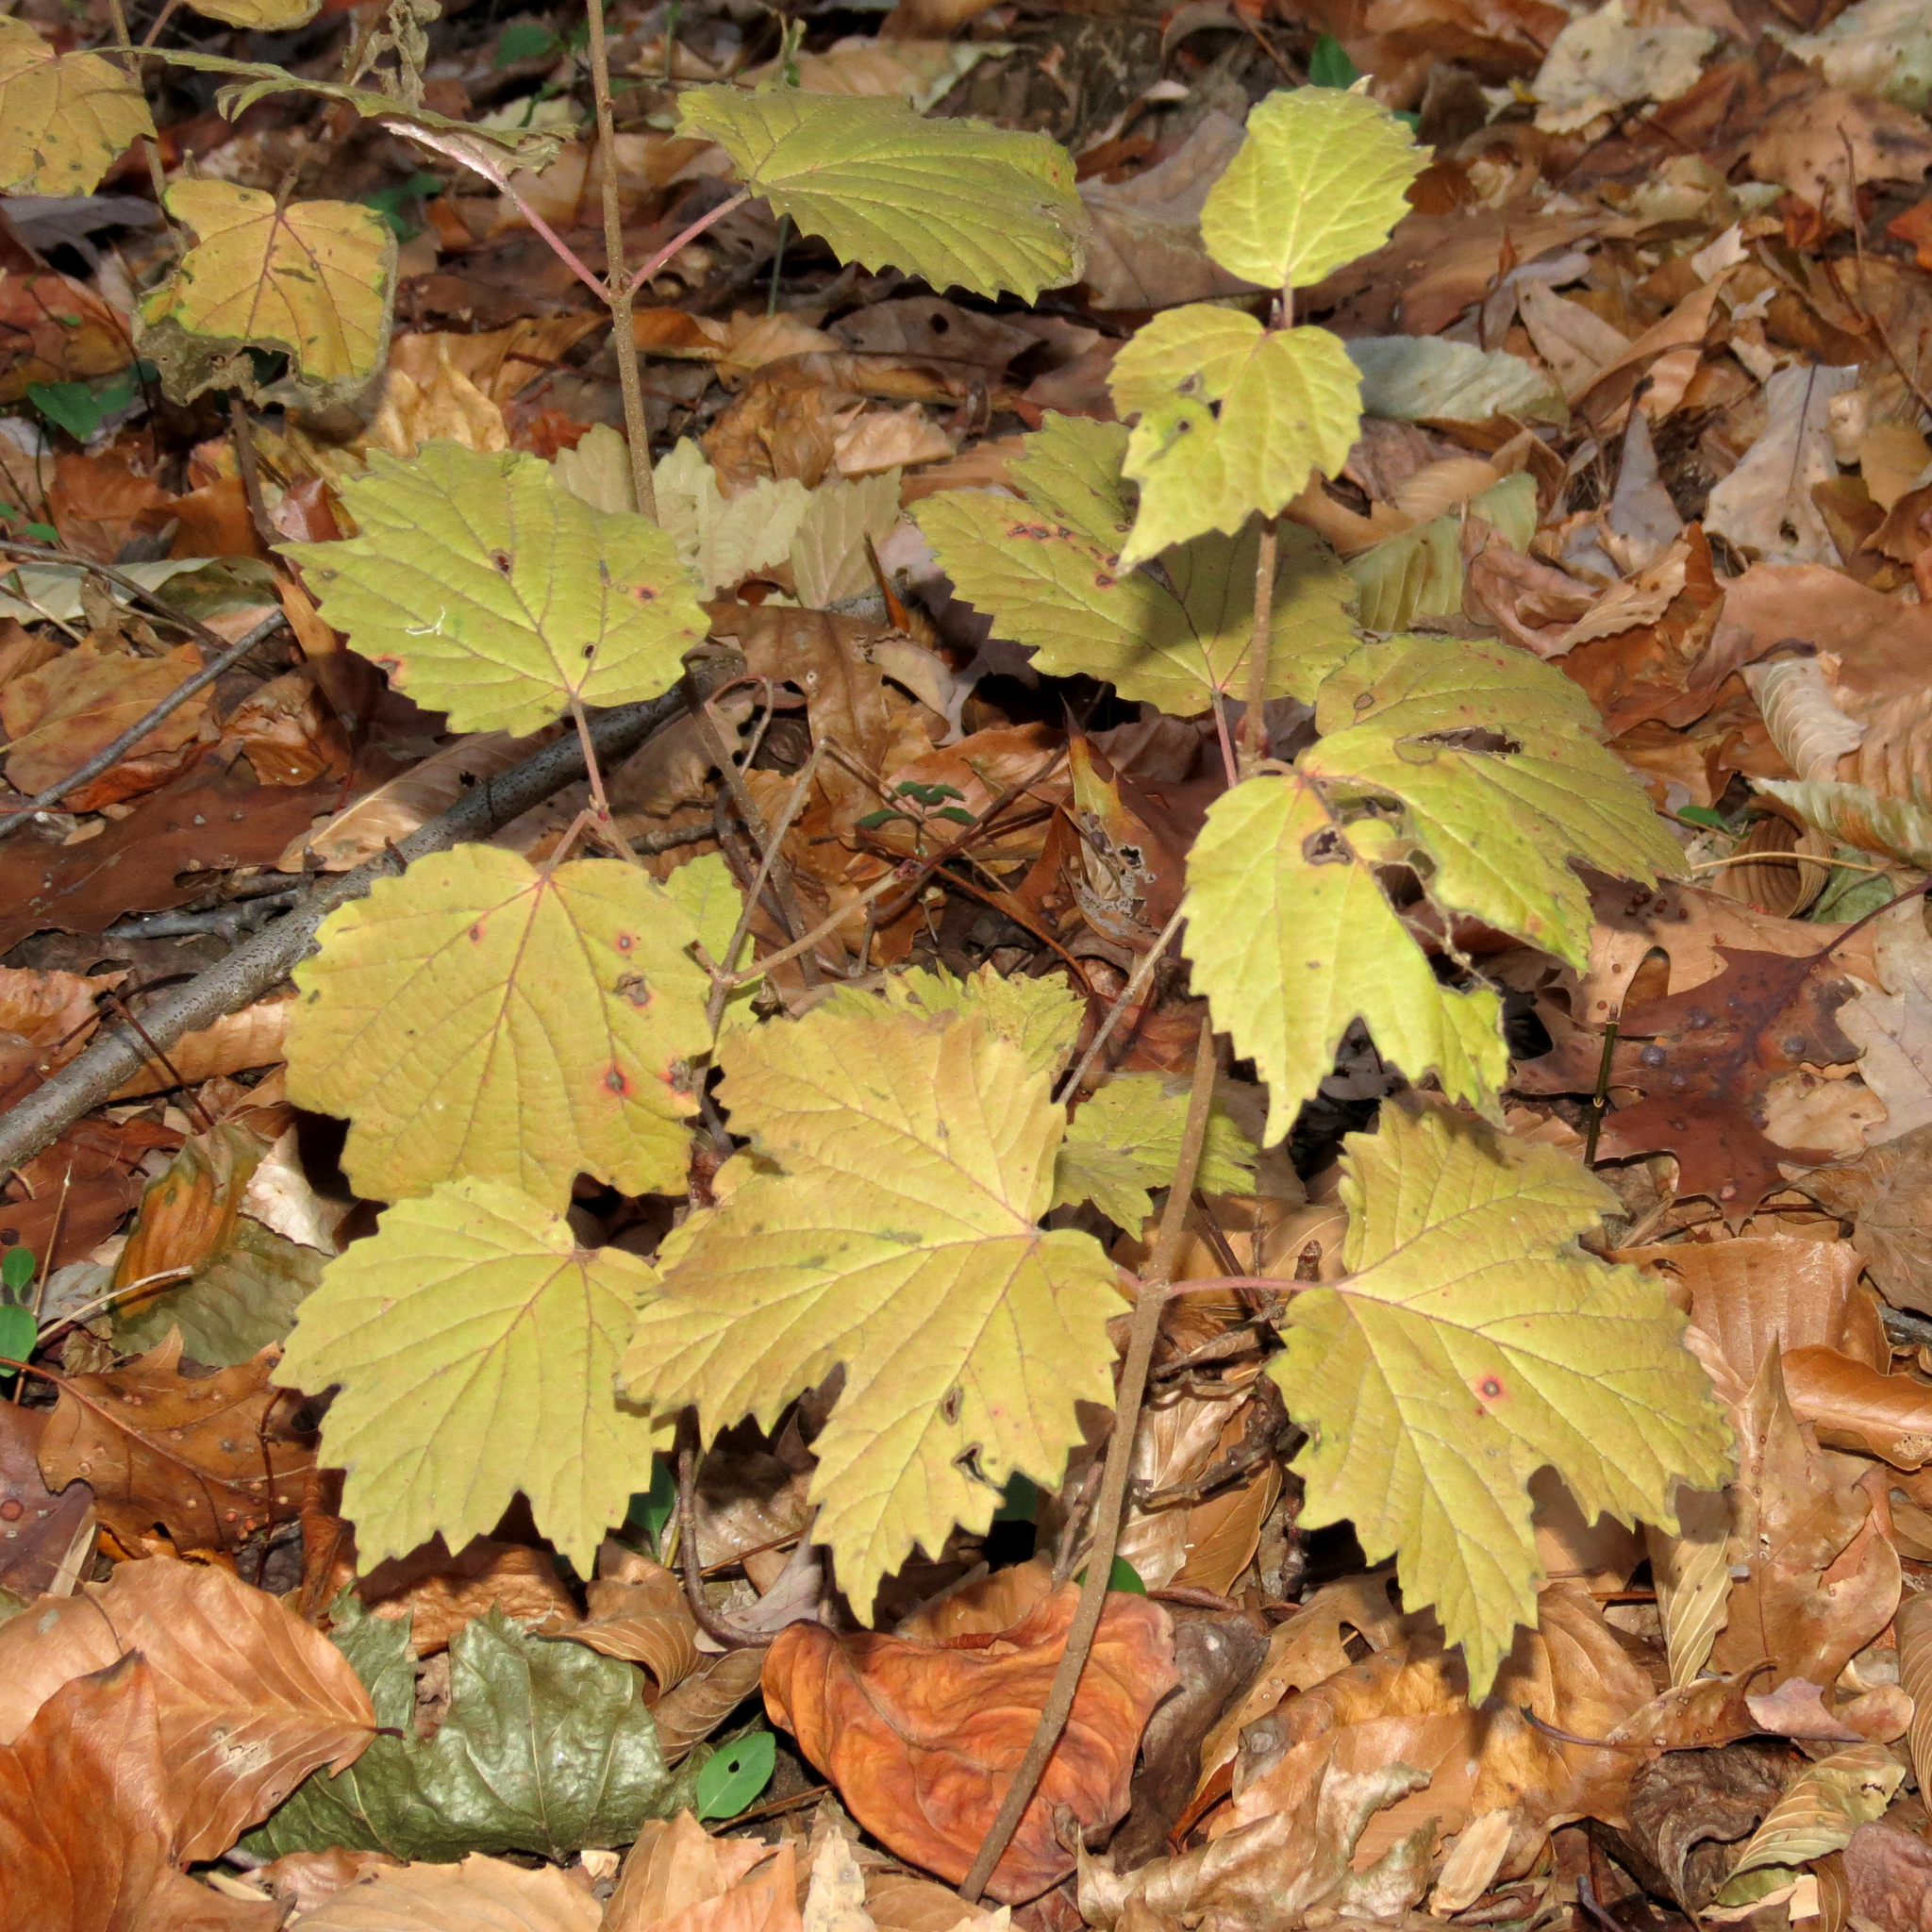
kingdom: Plantae
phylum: Tracheophyta
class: Magnoliopsida
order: Dipsacales
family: Viburnaceae
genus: Viburnum
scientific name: Viburnum acerifolium
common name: Dockmackie
